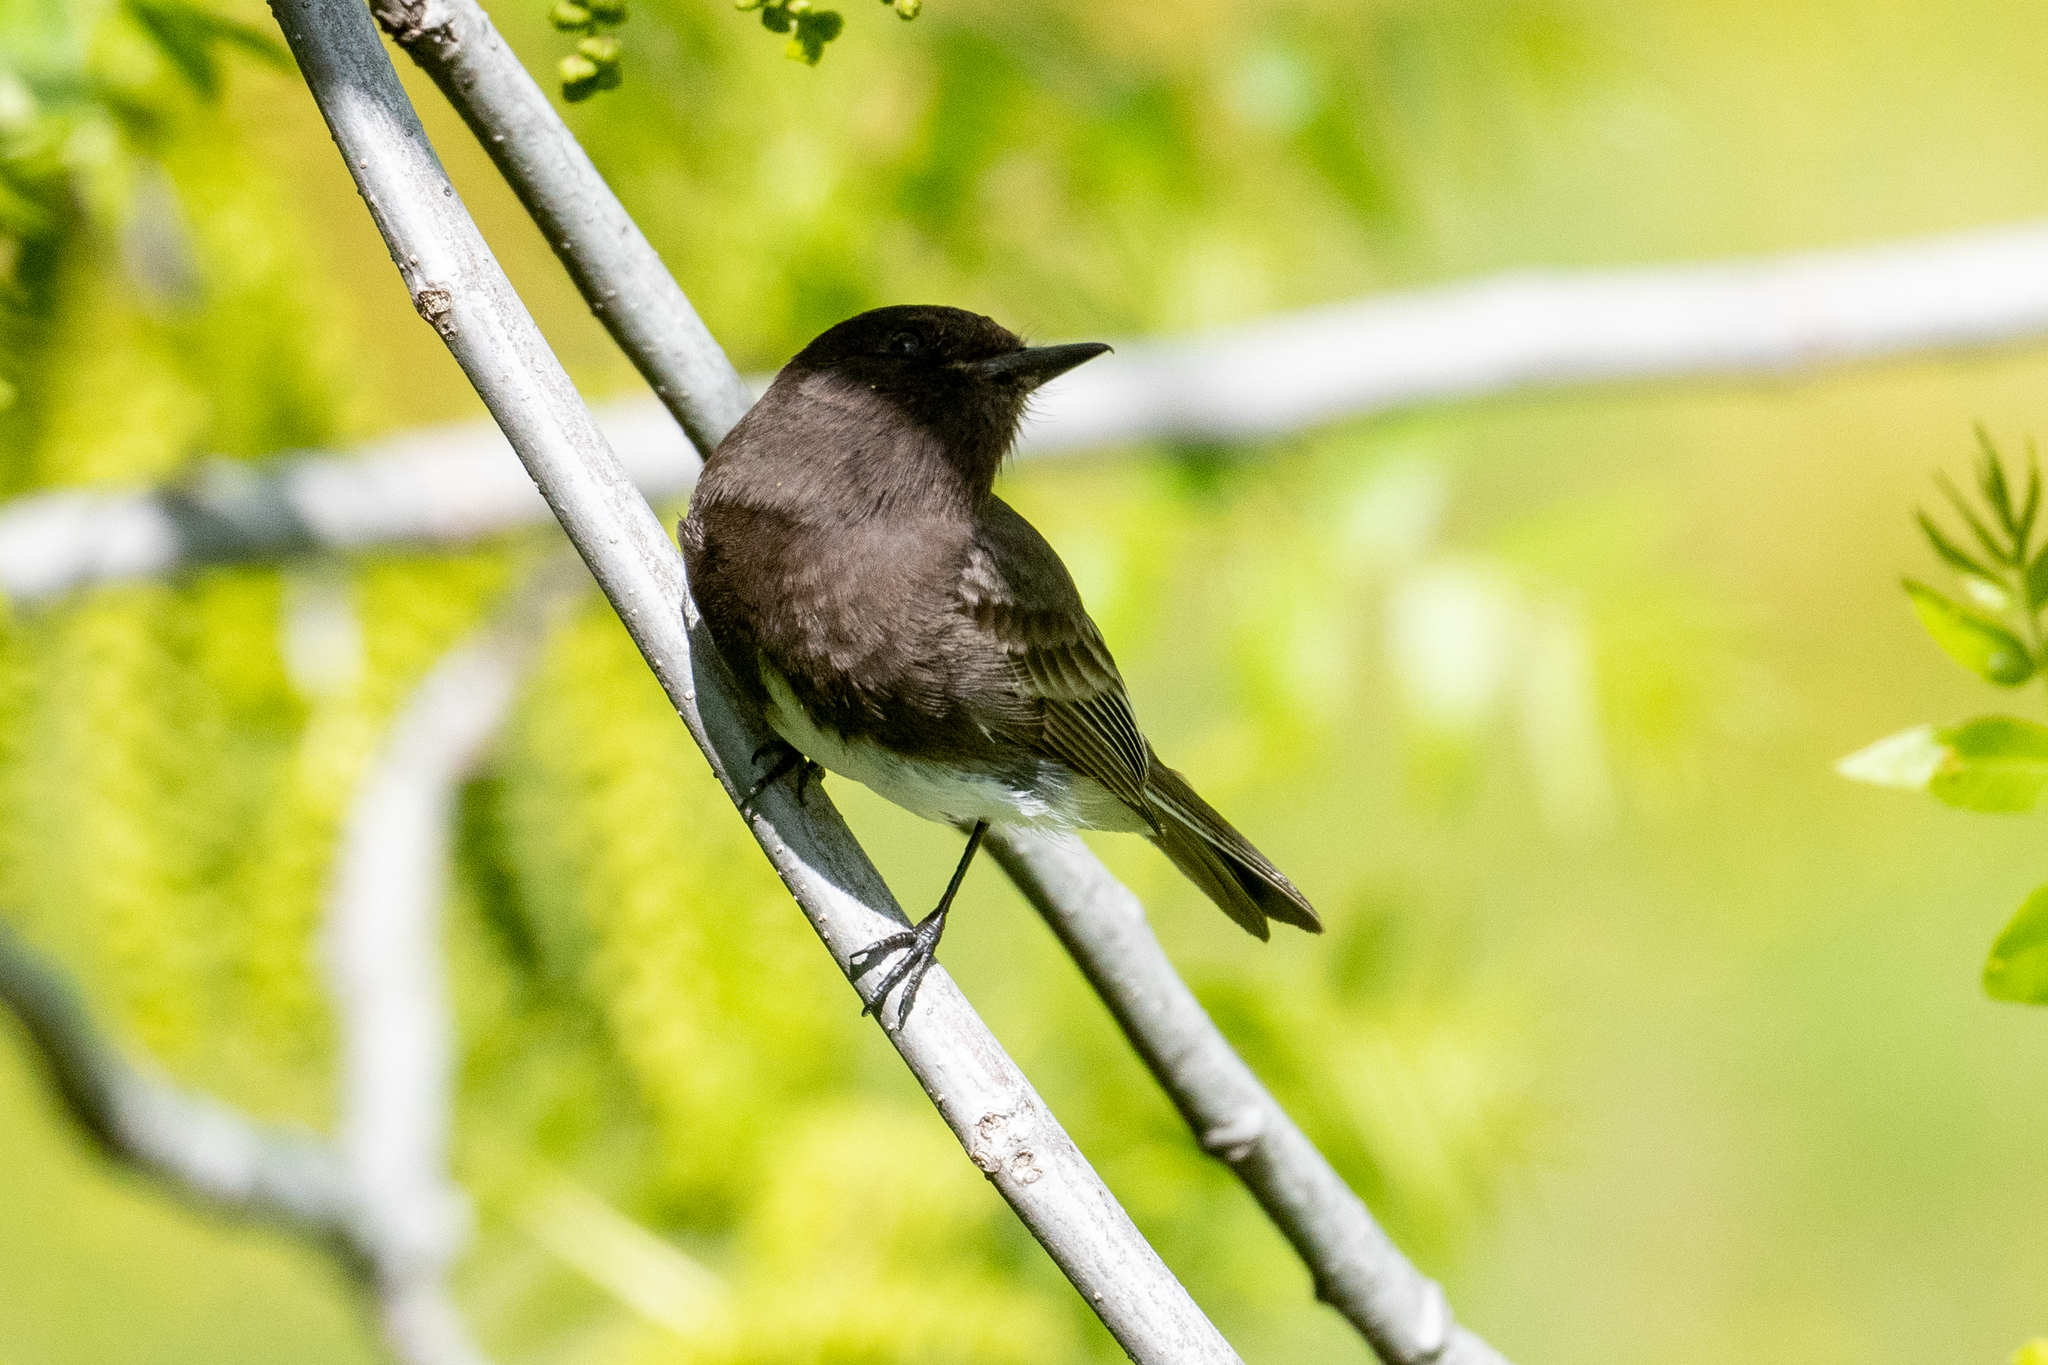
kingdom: Animalia
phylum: Chordata
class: Aves
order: Passeriformes
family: Tyrannidae
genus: Sayornis
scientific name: Sayornis nigricans
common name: Black phoebe
